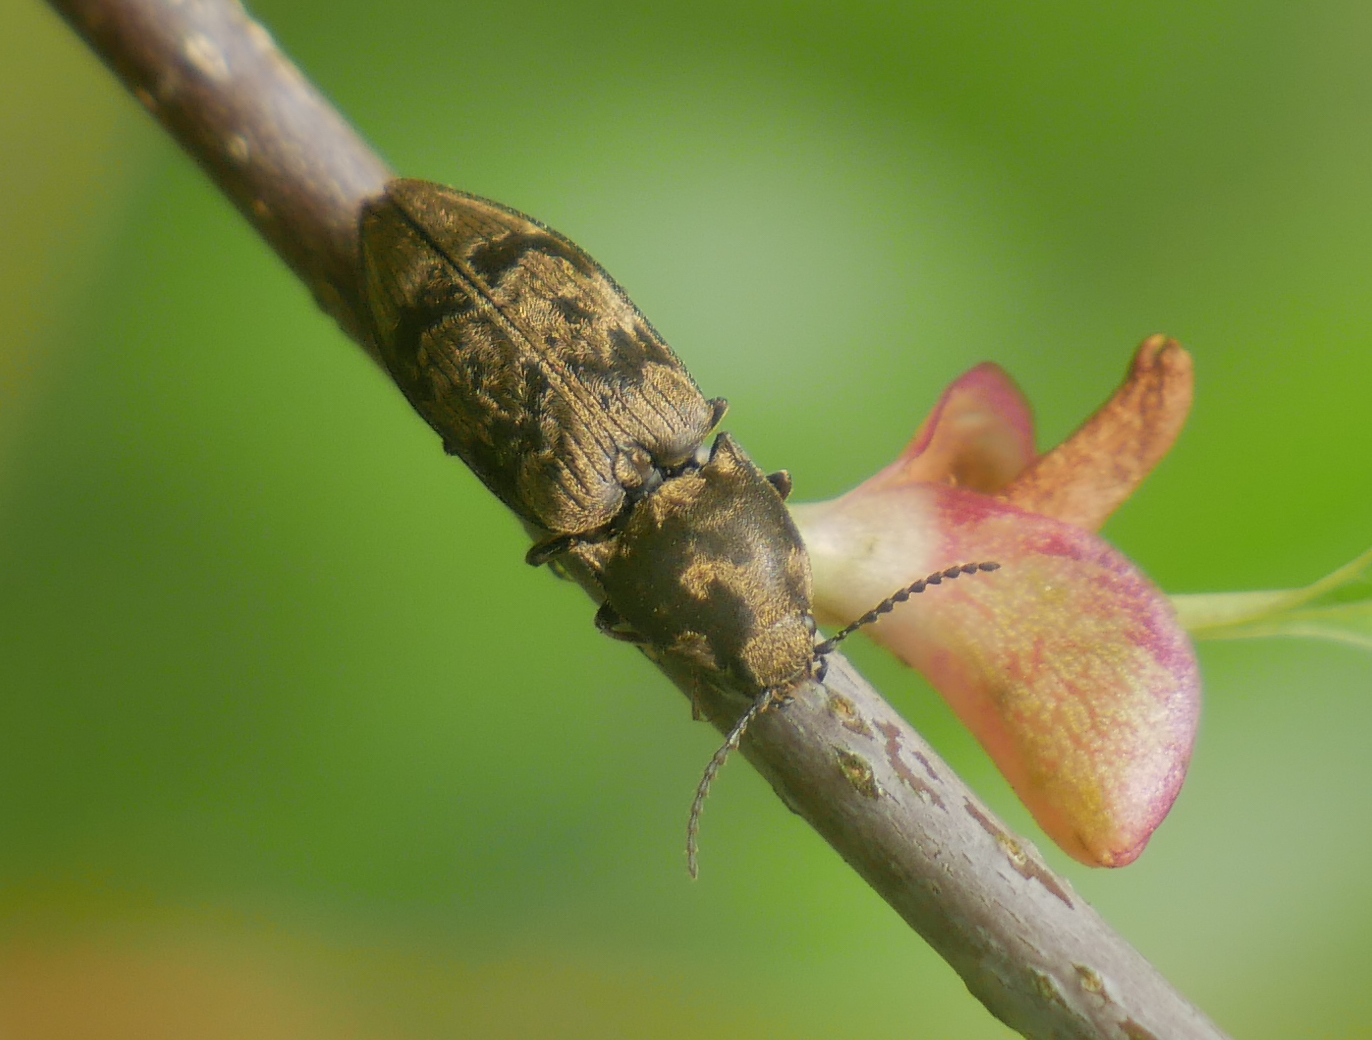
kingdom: Animalia
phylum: Arthropoda
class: Insecta
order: Coleoptera
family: Elateridae
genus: Prosternon
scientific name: Prosternon tessellatum
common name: Chequered click beetle
